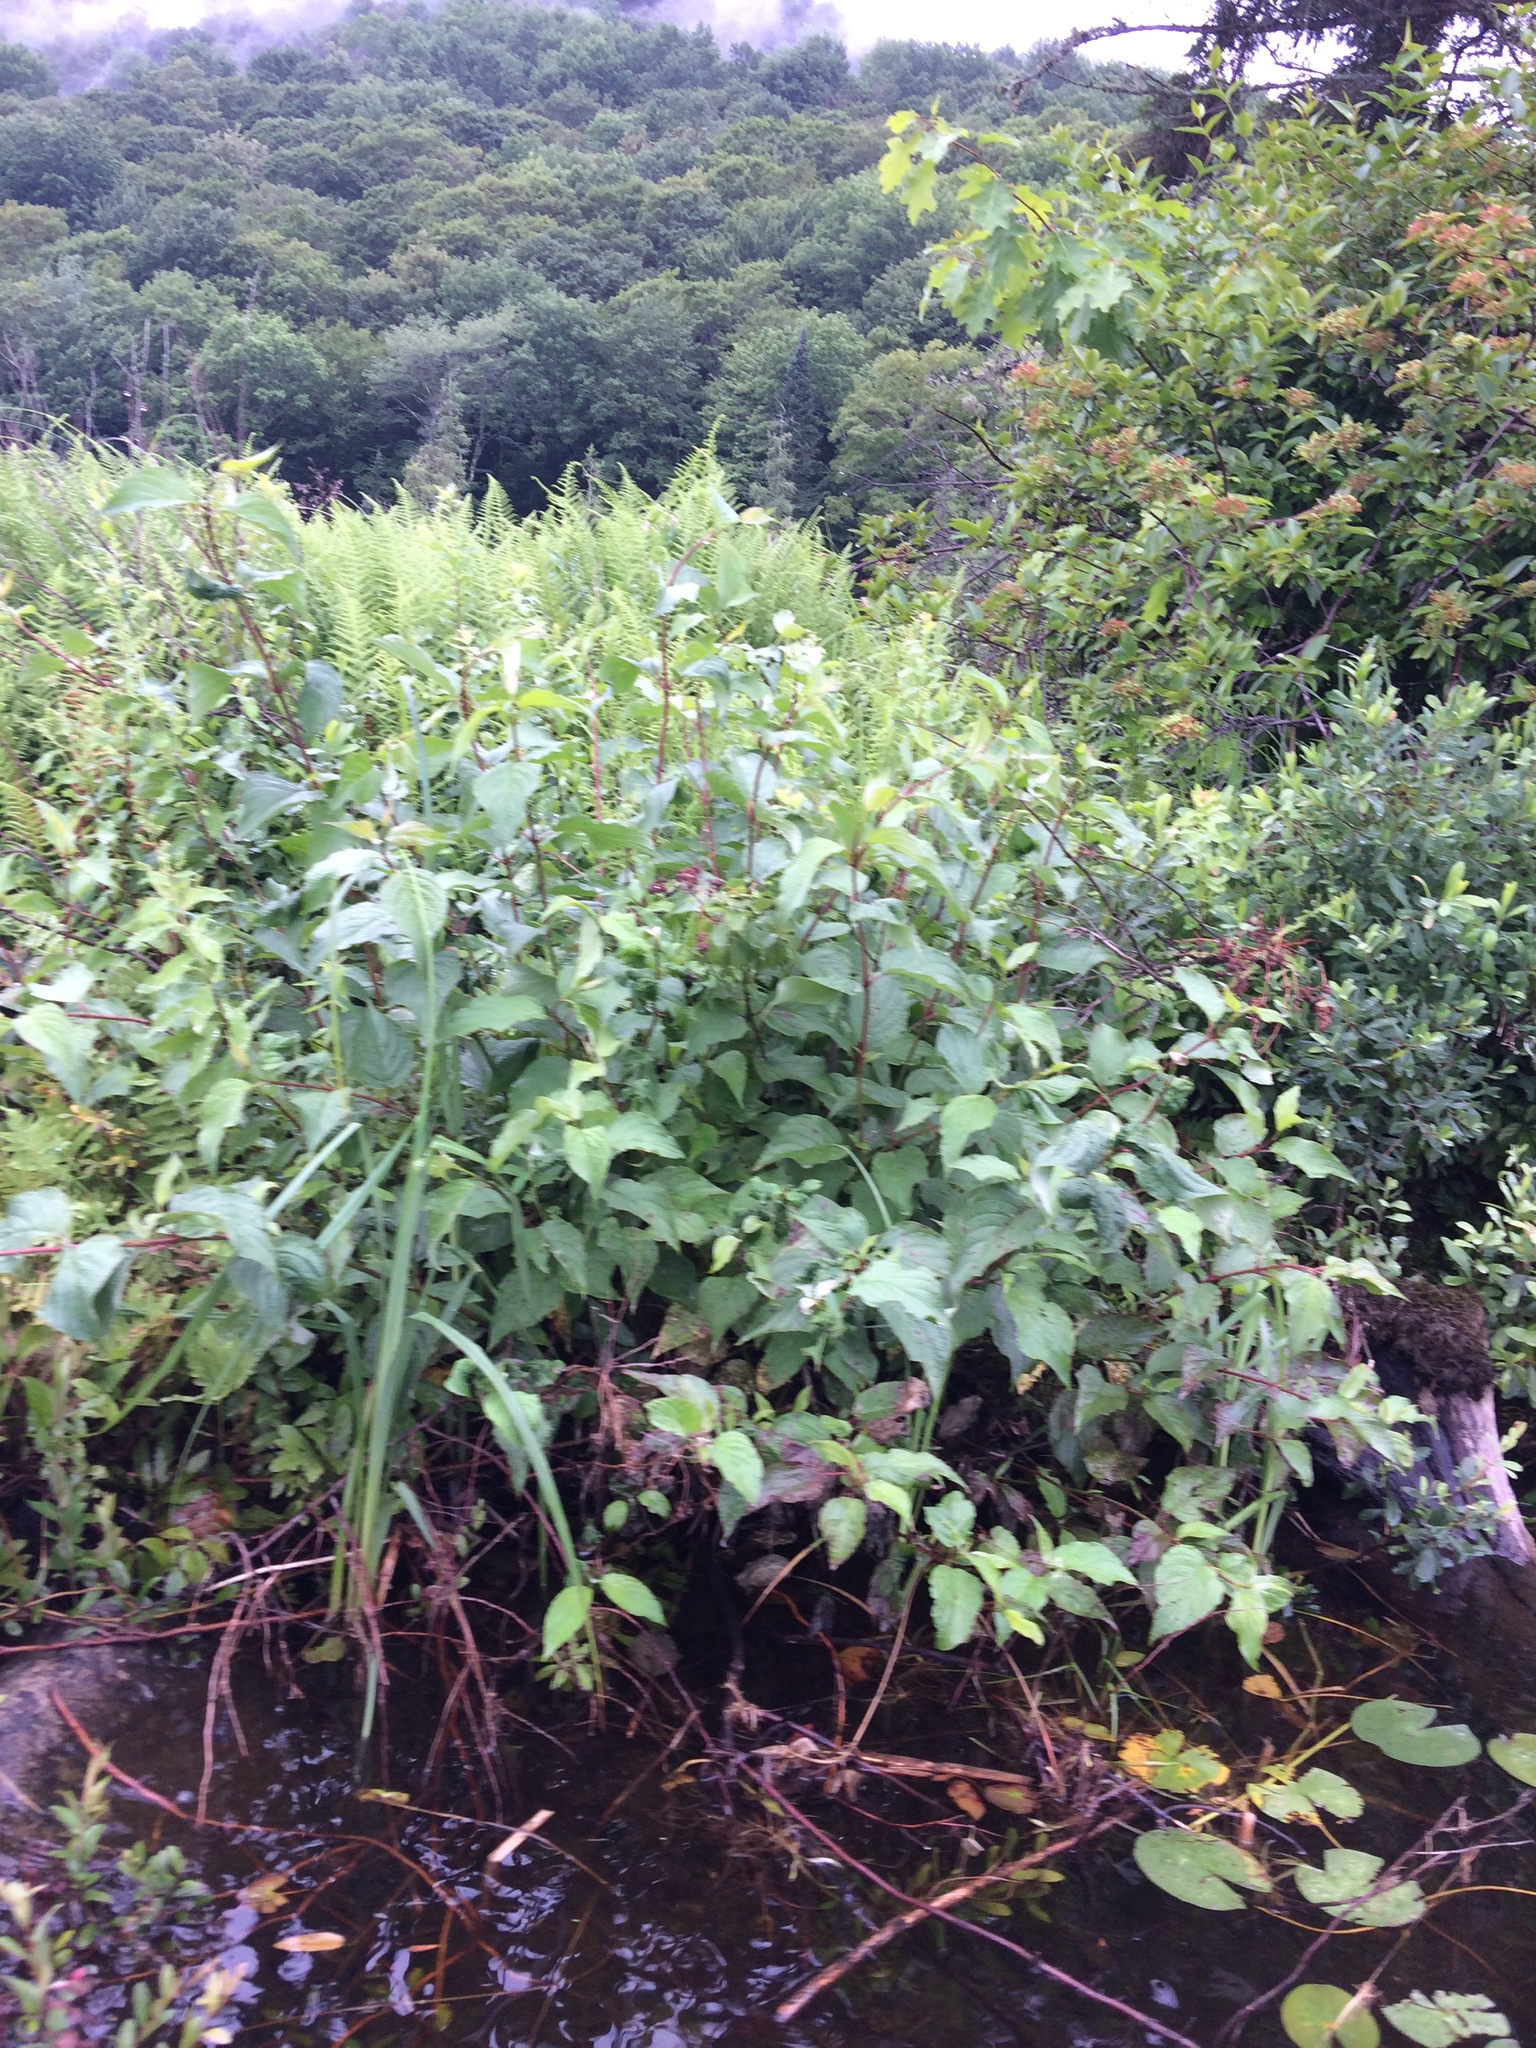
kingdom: Plantae
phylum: Tracheophyta
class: Magnoliopsida
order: Cornales
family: Cornaceae
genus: Cornus
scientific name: Cornus sericea
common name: Red-osier dogwood
